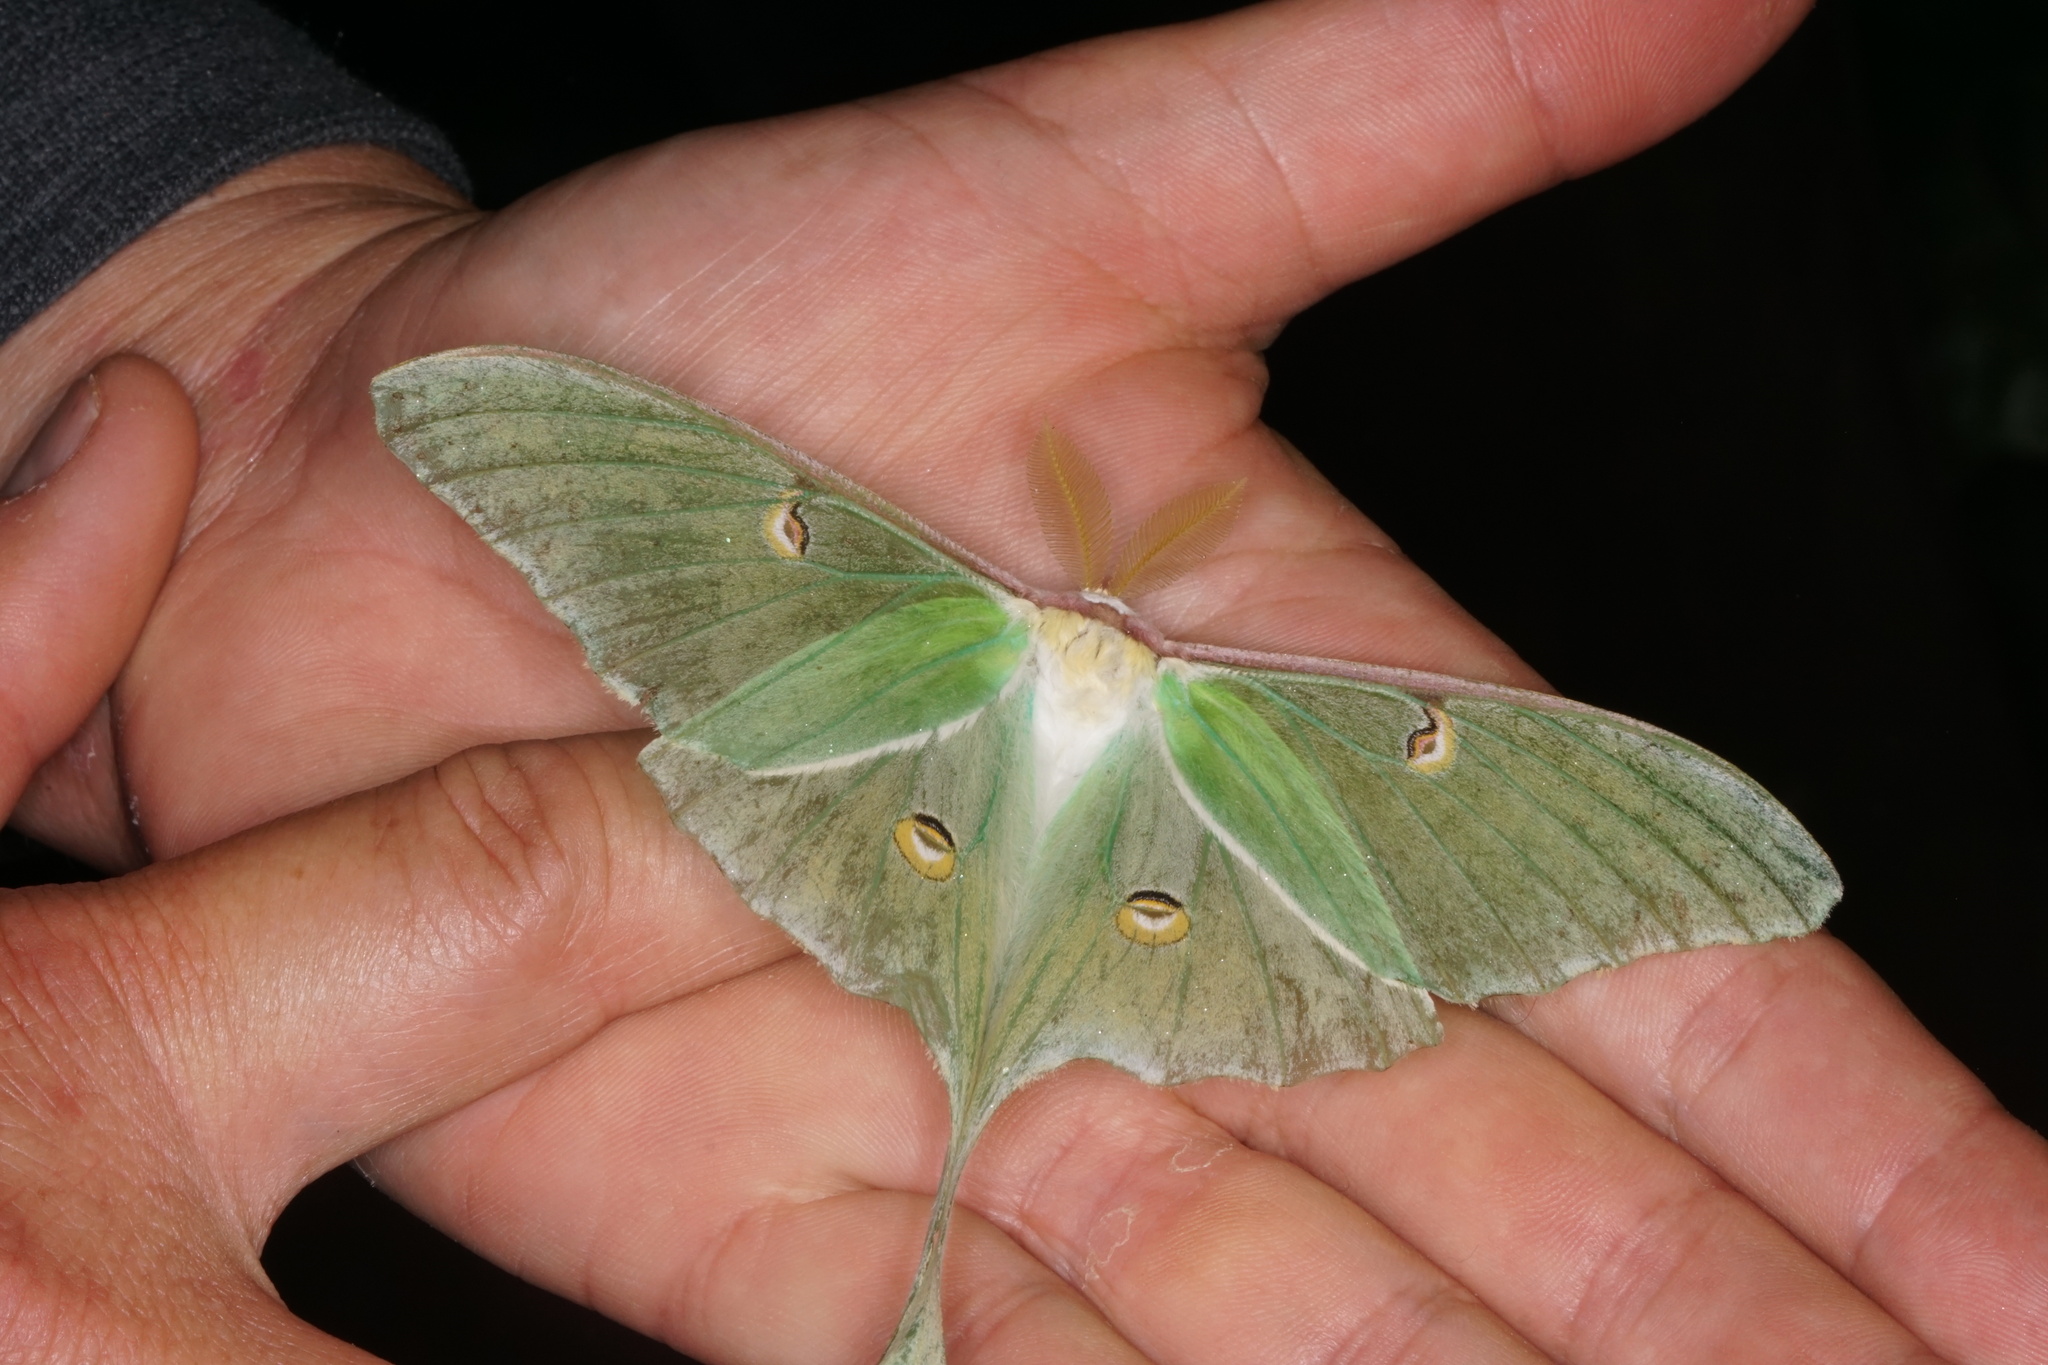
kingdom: Animalia
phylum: Arthropoda
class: Insecta
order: Lepidoptera
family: Saturniidae
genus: Actias
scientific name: Actias luna
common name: Luna moth
